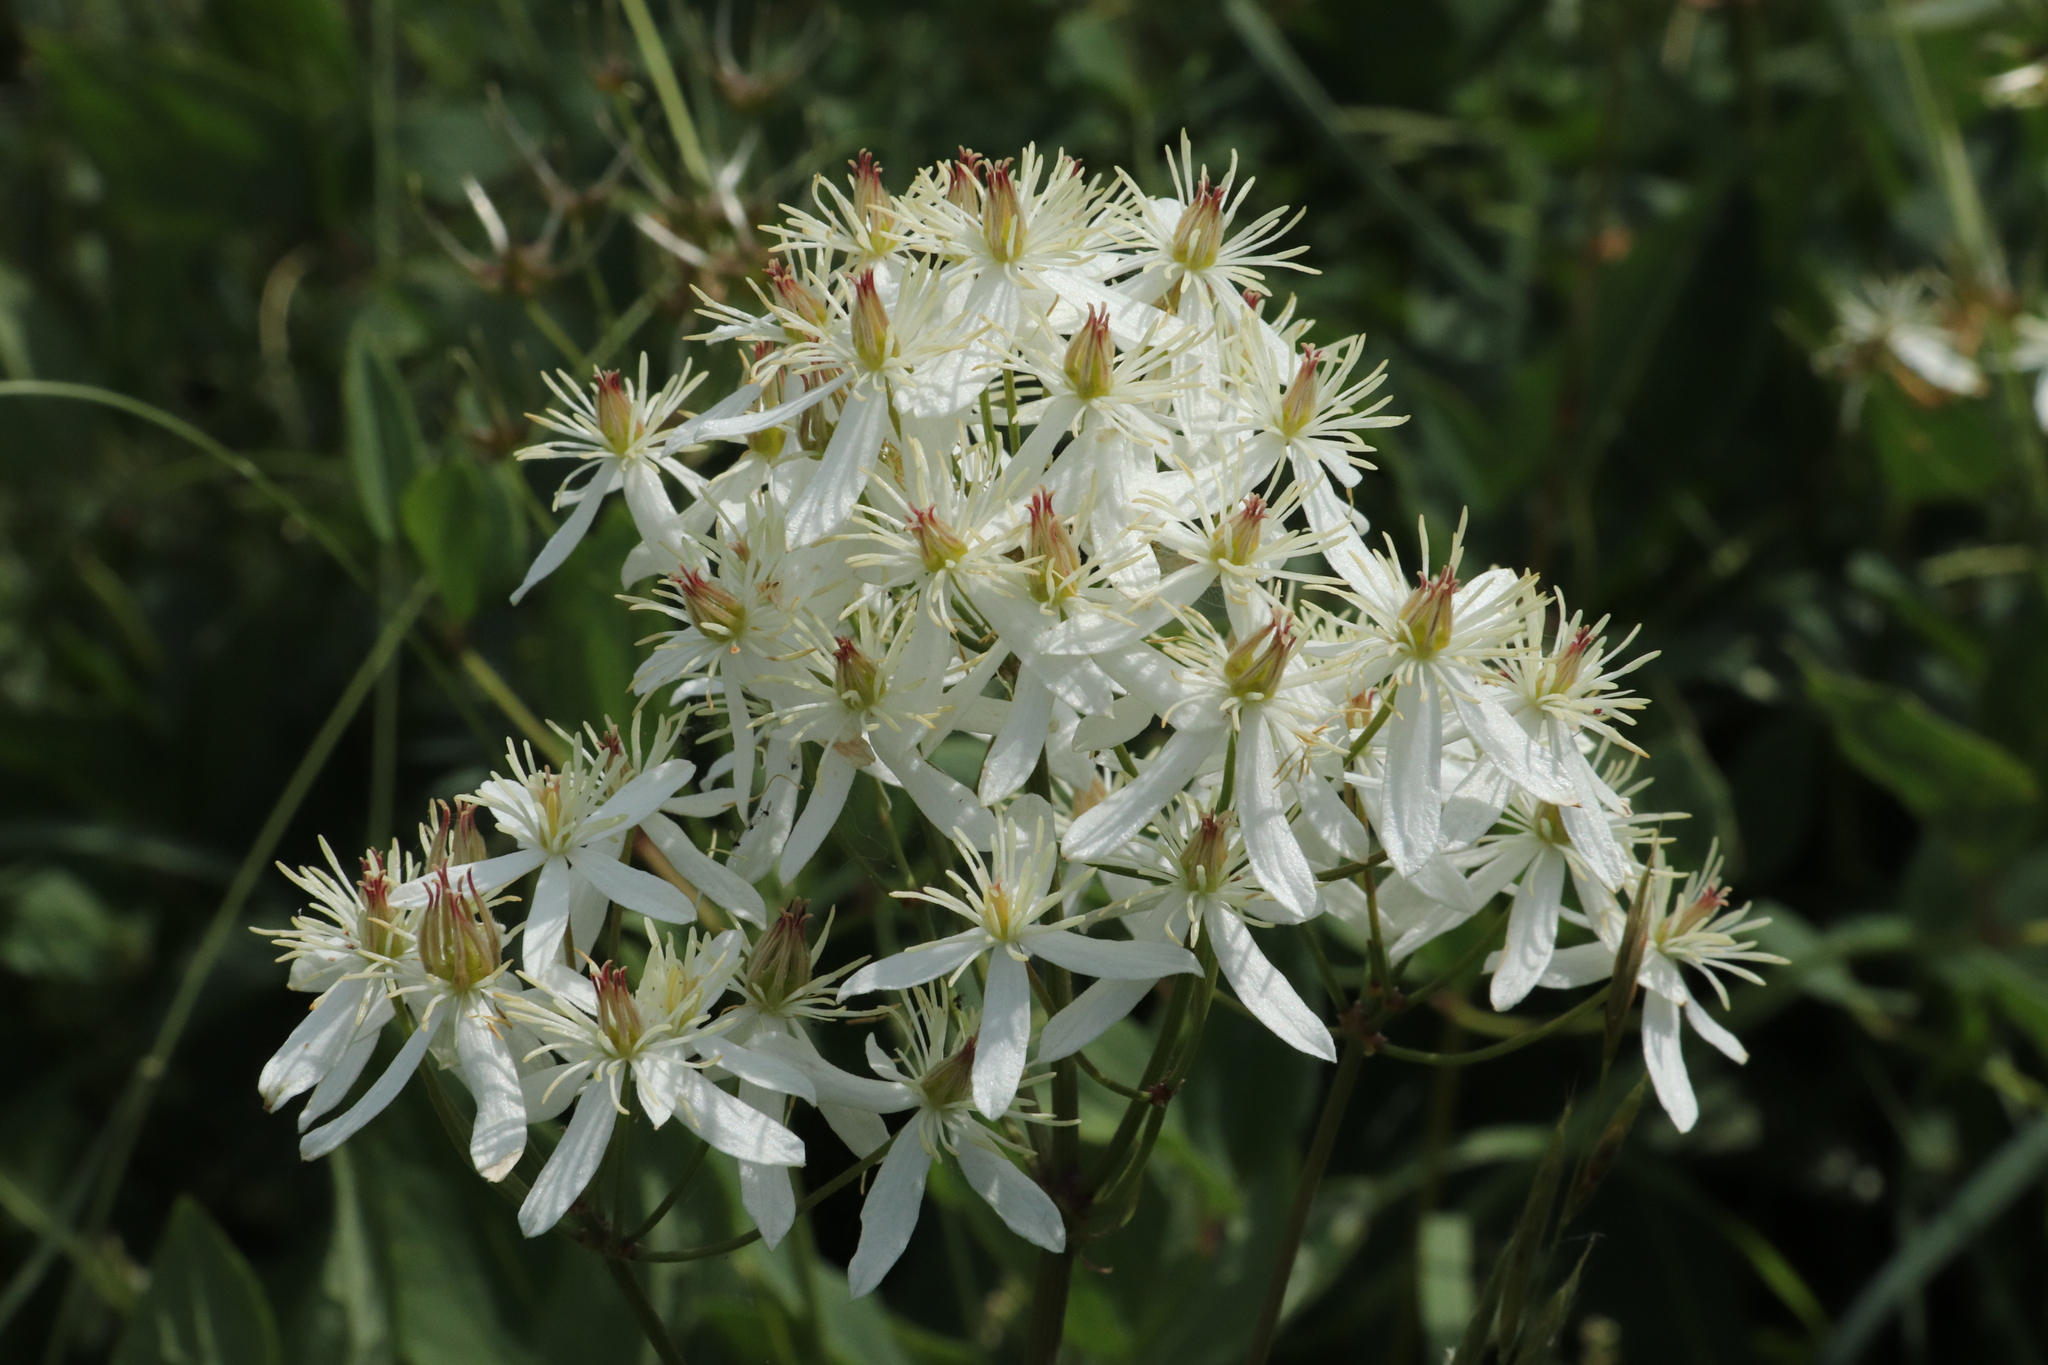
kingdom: Plantae
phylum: Tracheophyta
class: Magnoliopsida
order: Ranunculales
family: Ranunculaceae
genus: Clematis
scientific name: Clematis recta
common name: Ground clematis
